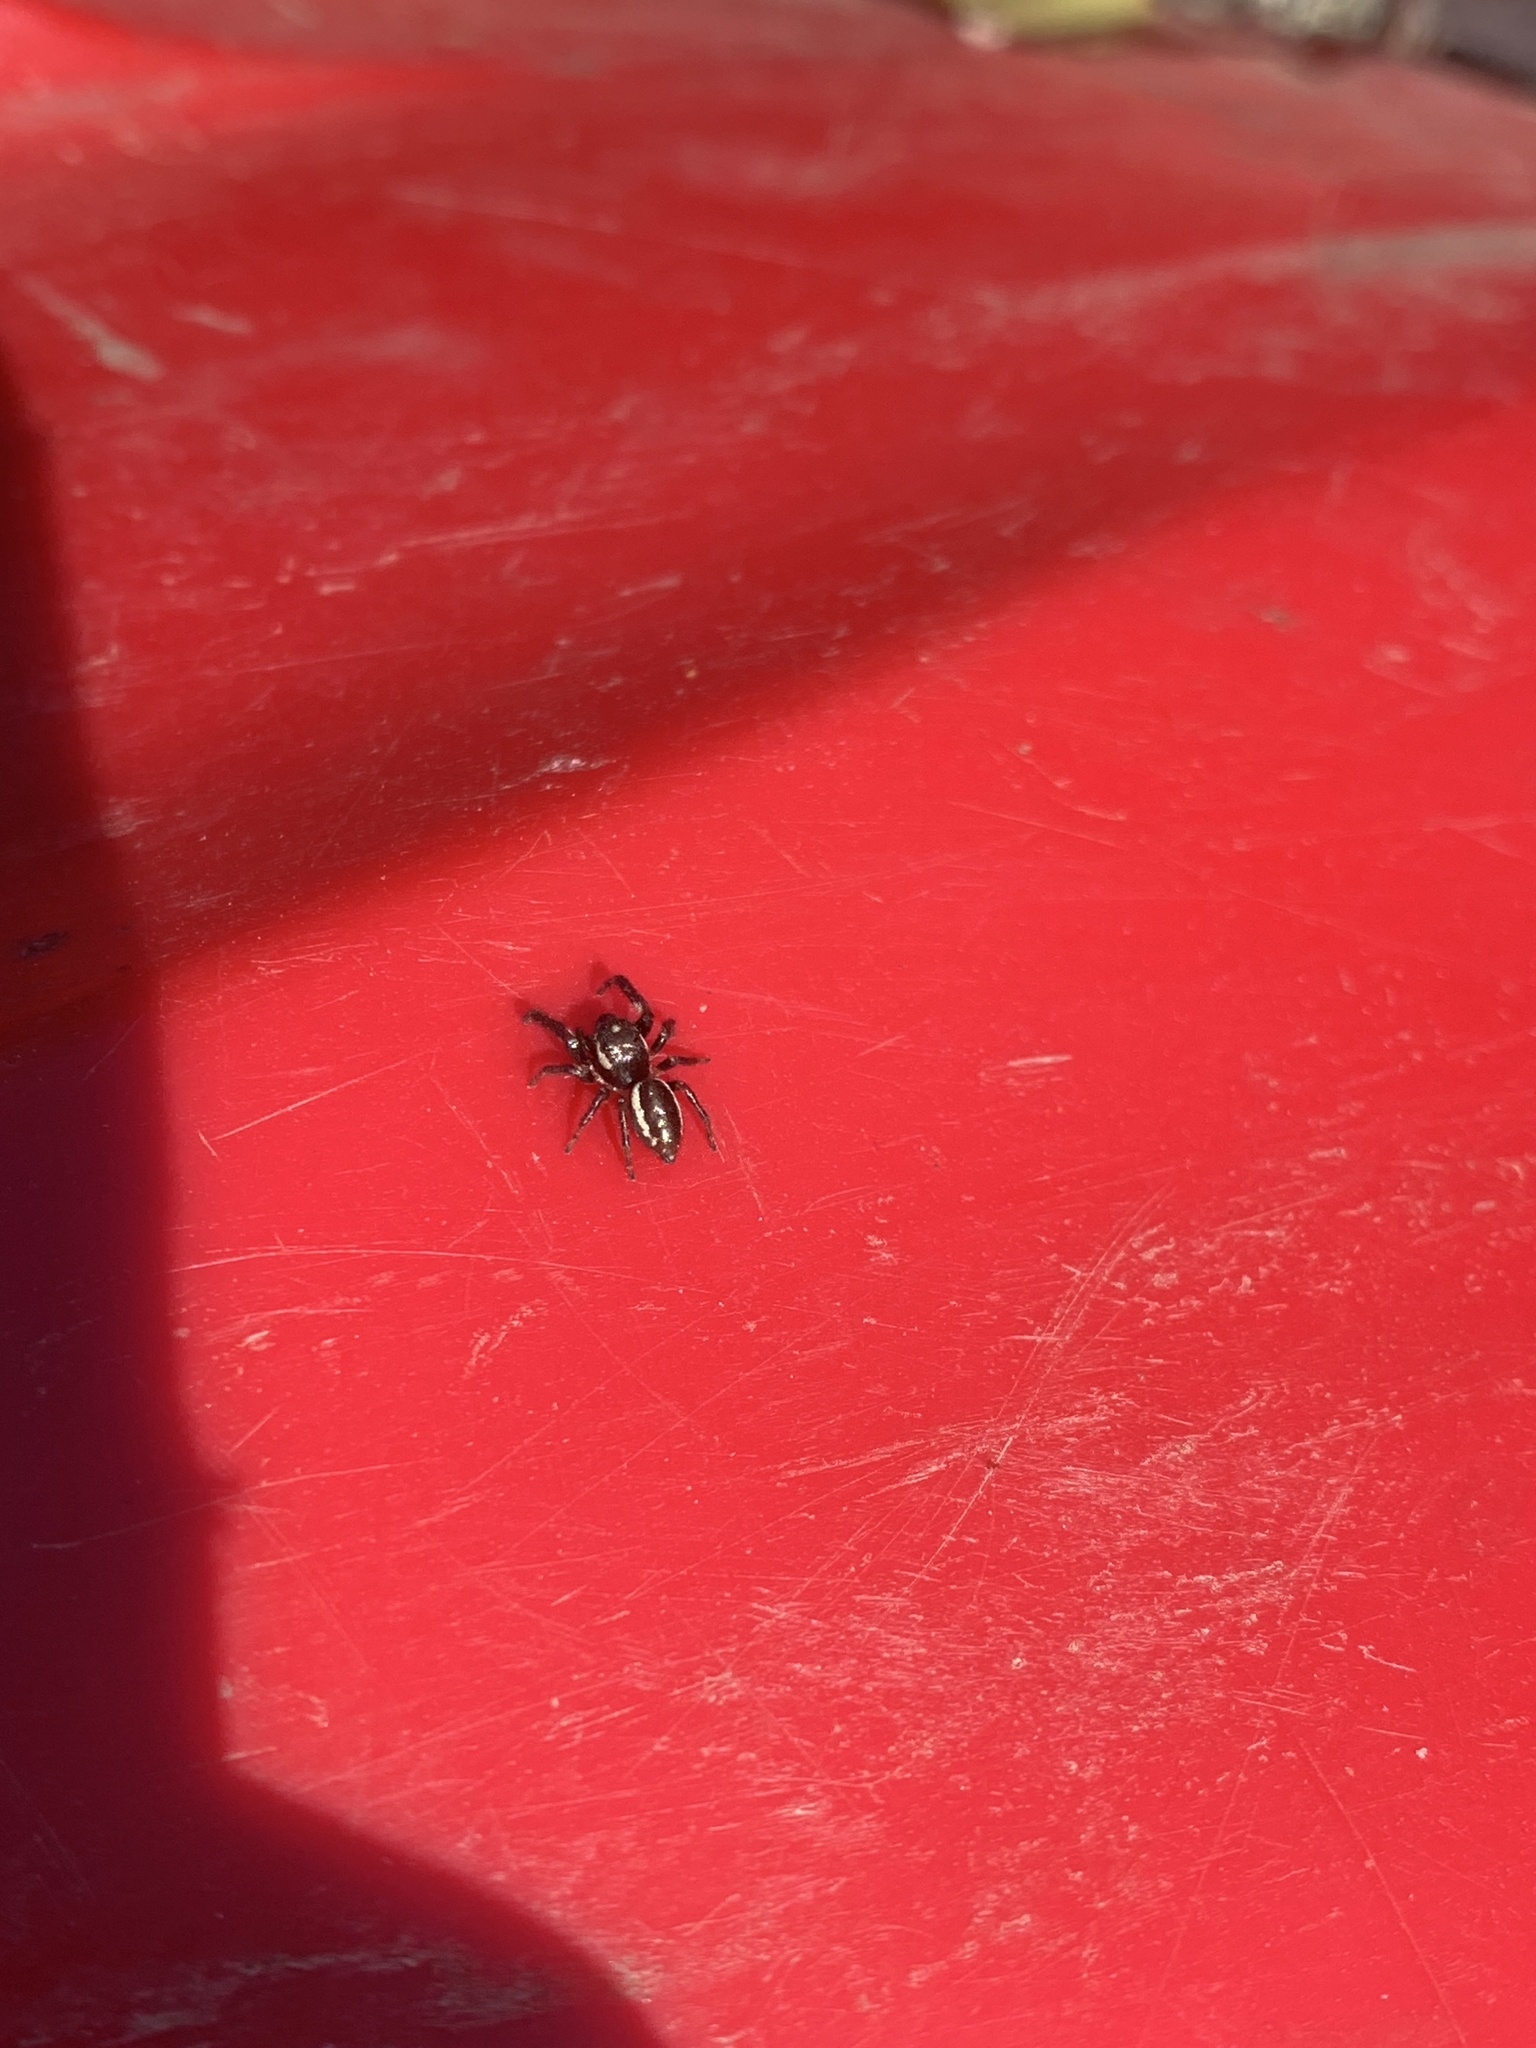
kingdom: Animalia
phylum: Arthropoda
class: Arachnida
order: Araneae
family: Salticidae
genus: Eris
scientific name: Eris militaris
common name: Bronze jumper
